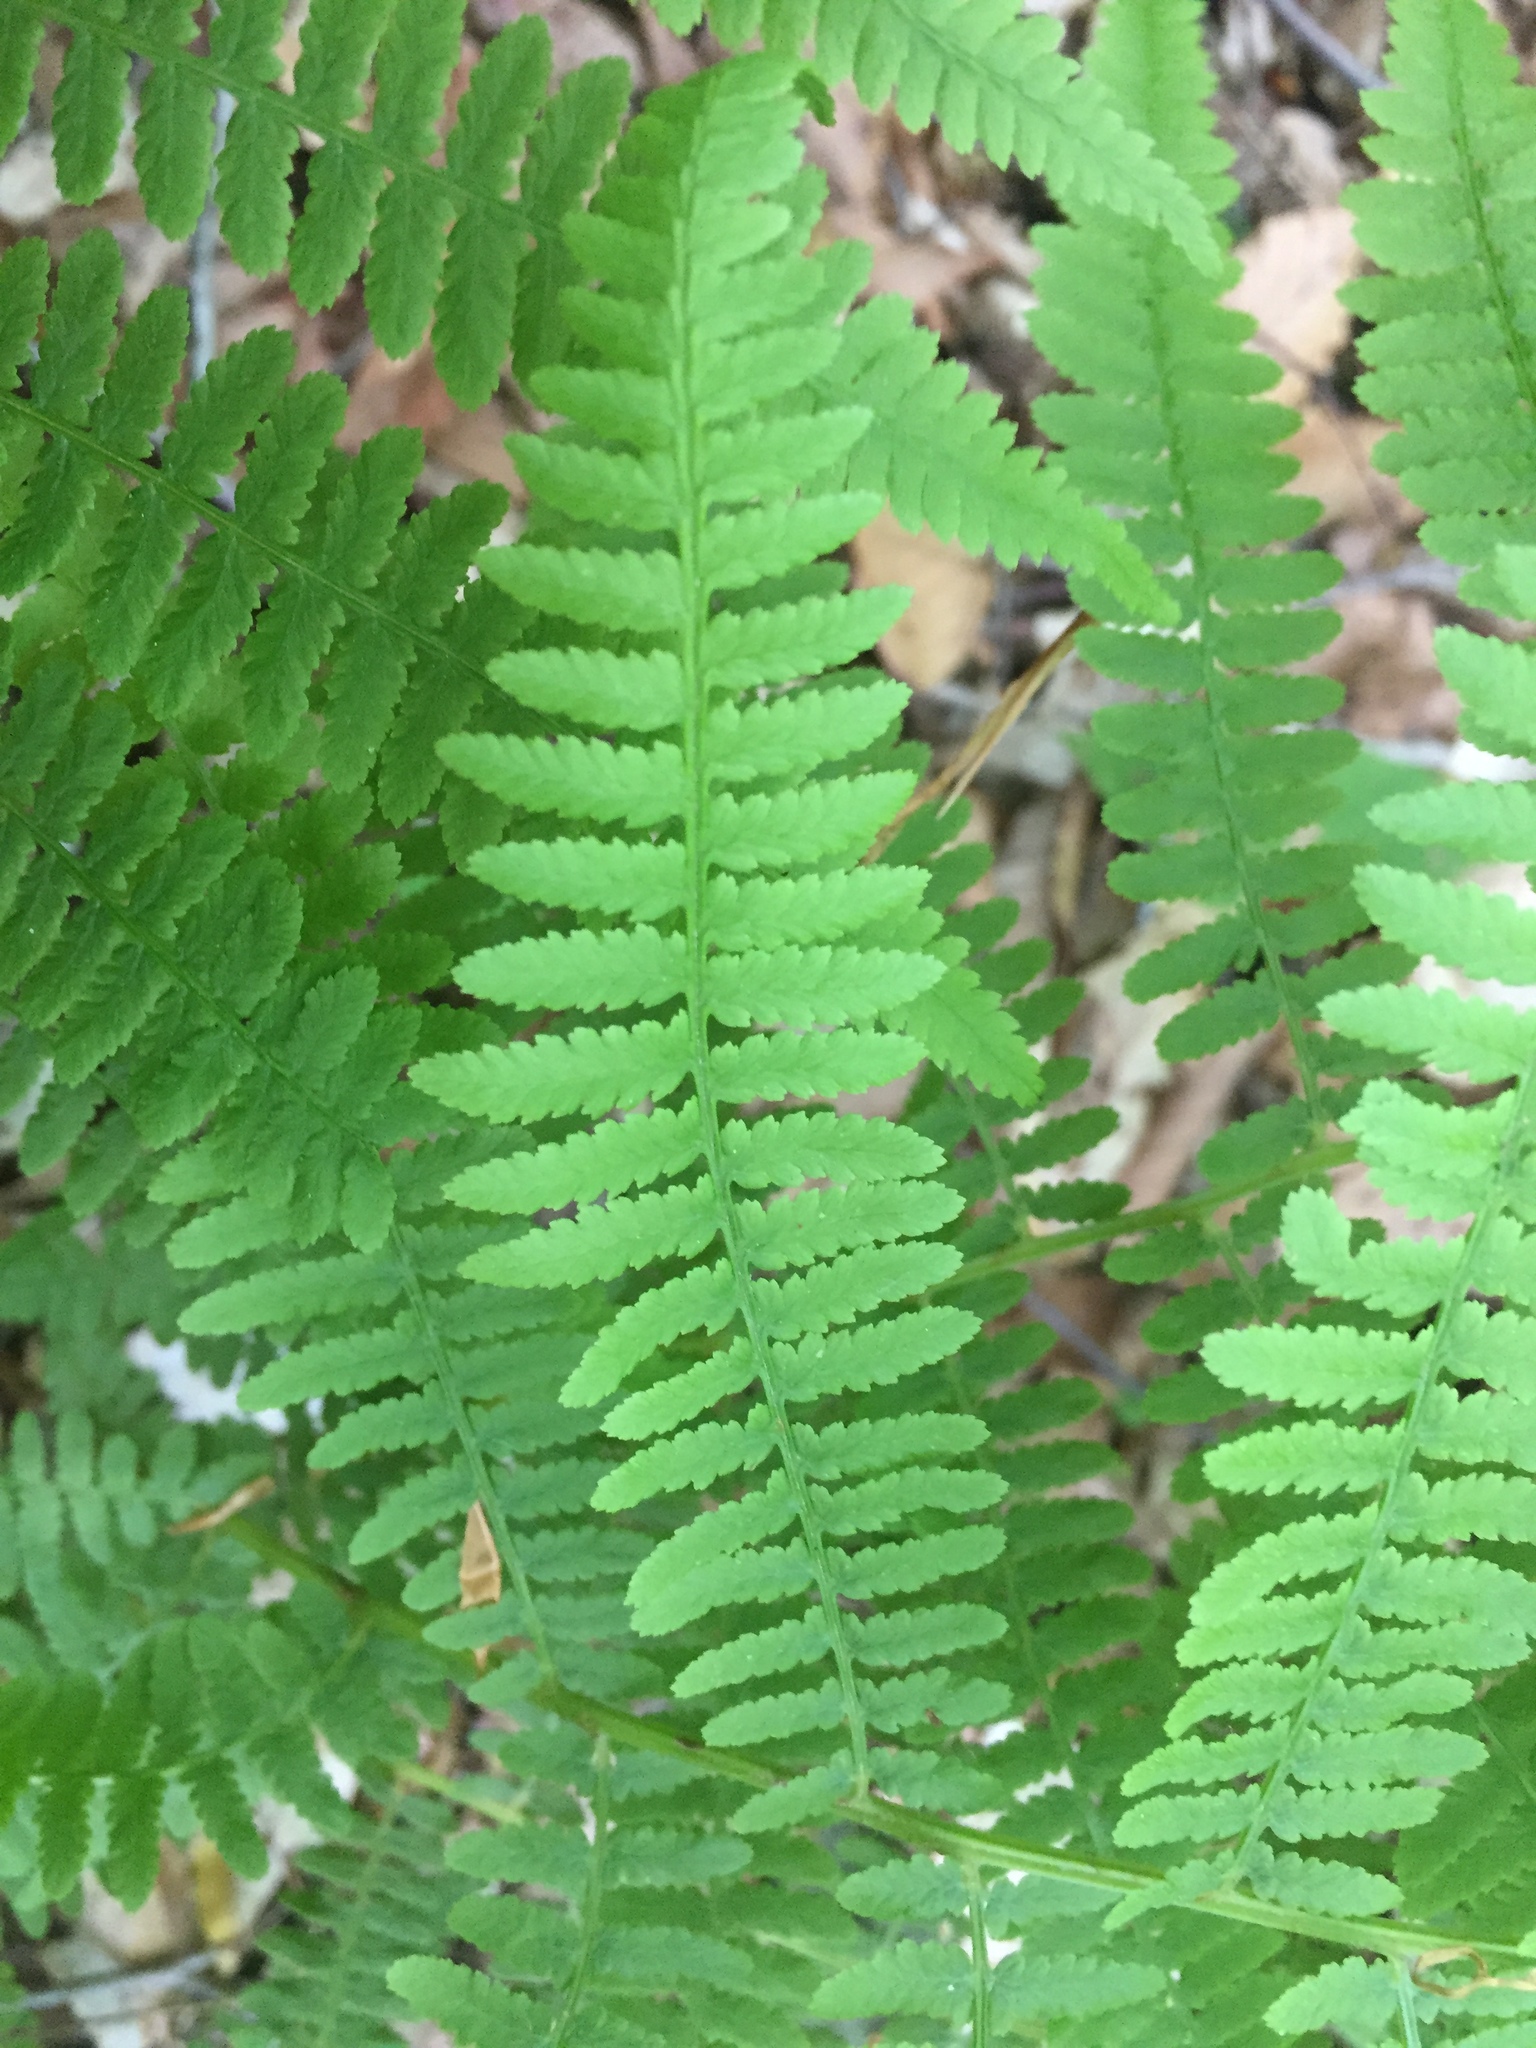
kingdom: Plantae
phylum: Tracheophyta
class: Polypodiopsida
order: Polypodiales
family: Athyriaceae
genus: Athyrium
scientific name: Athyrium angustum
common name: Northern lady fern
